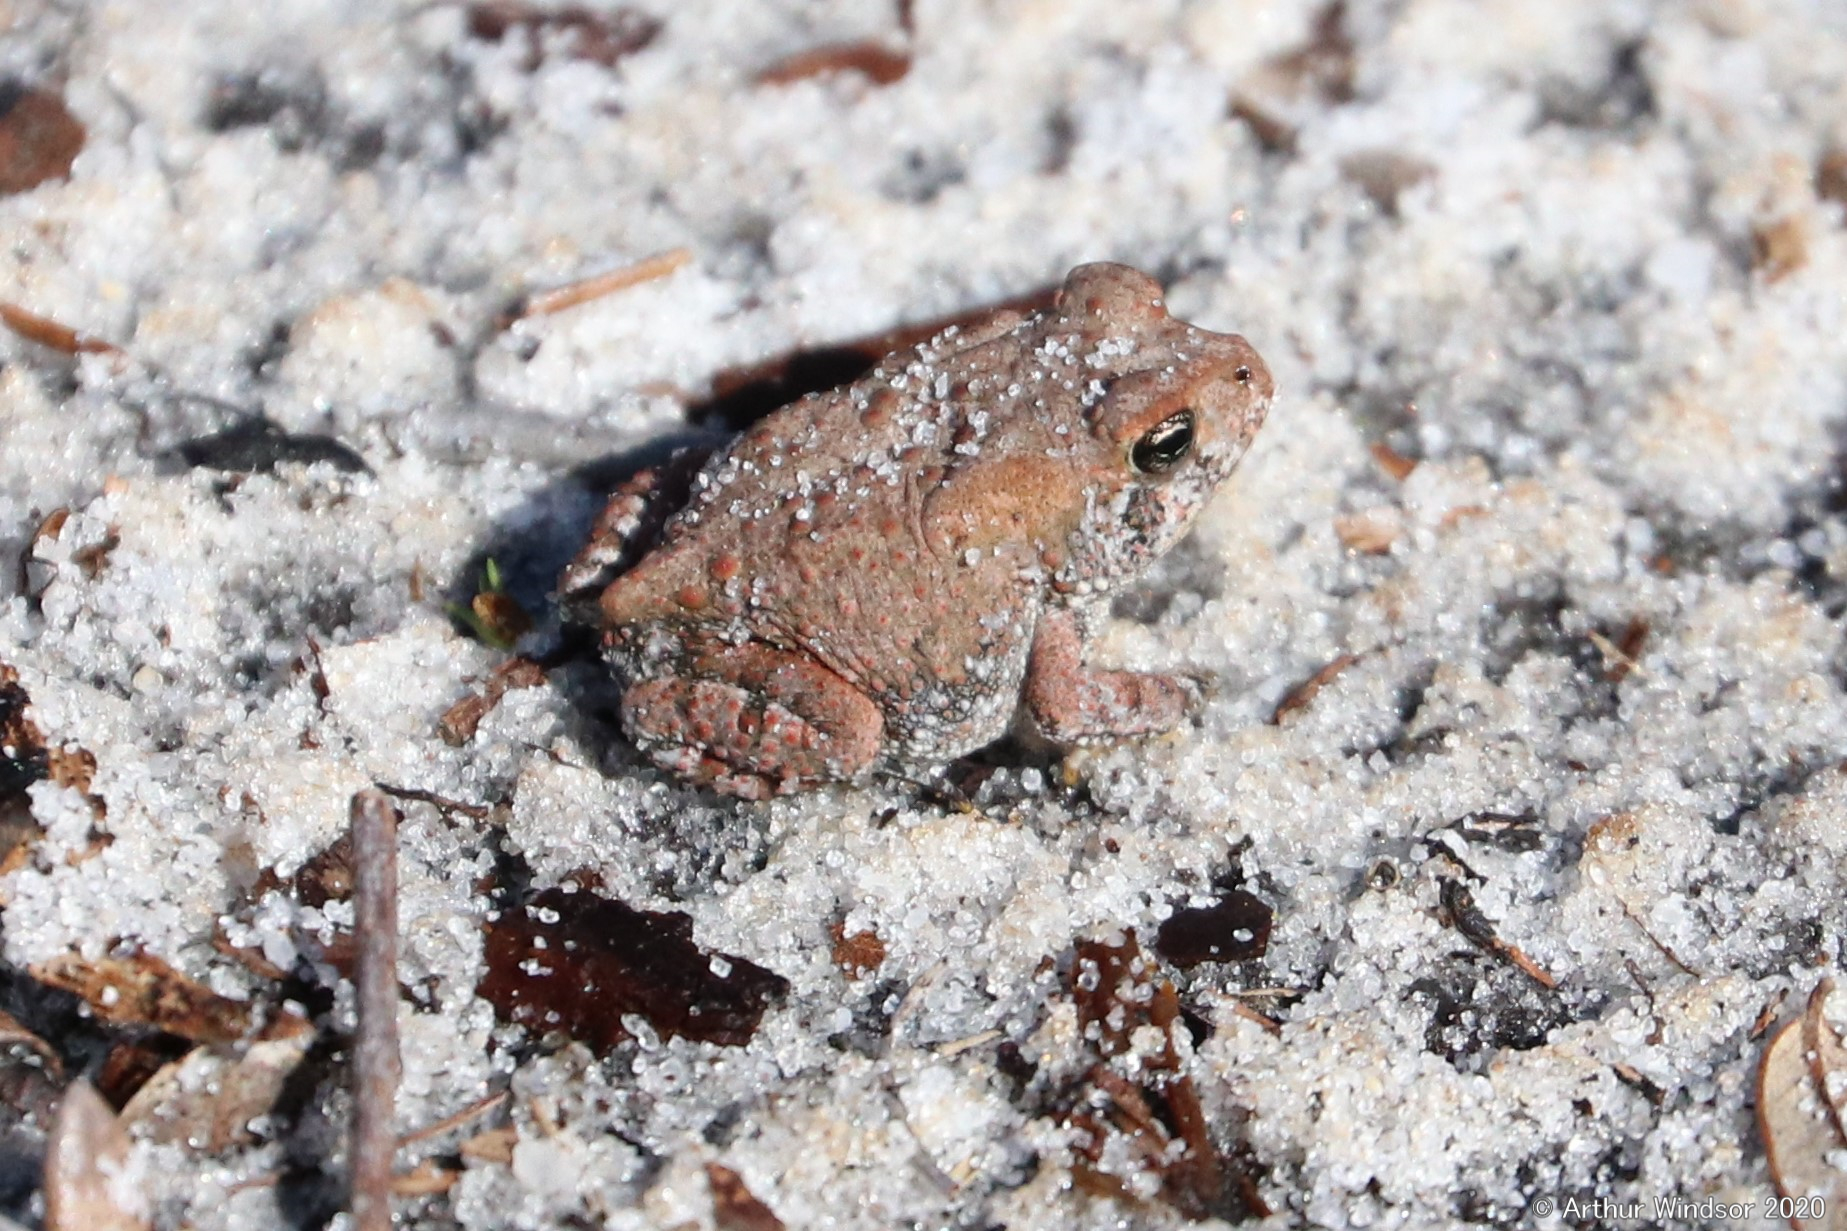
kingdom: Animalia
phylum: Chordata
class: Amphibia
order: Anura
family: Bufonidae
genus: Anaxyrus
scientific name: Anaxyrus terrestris
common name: Southern toad
